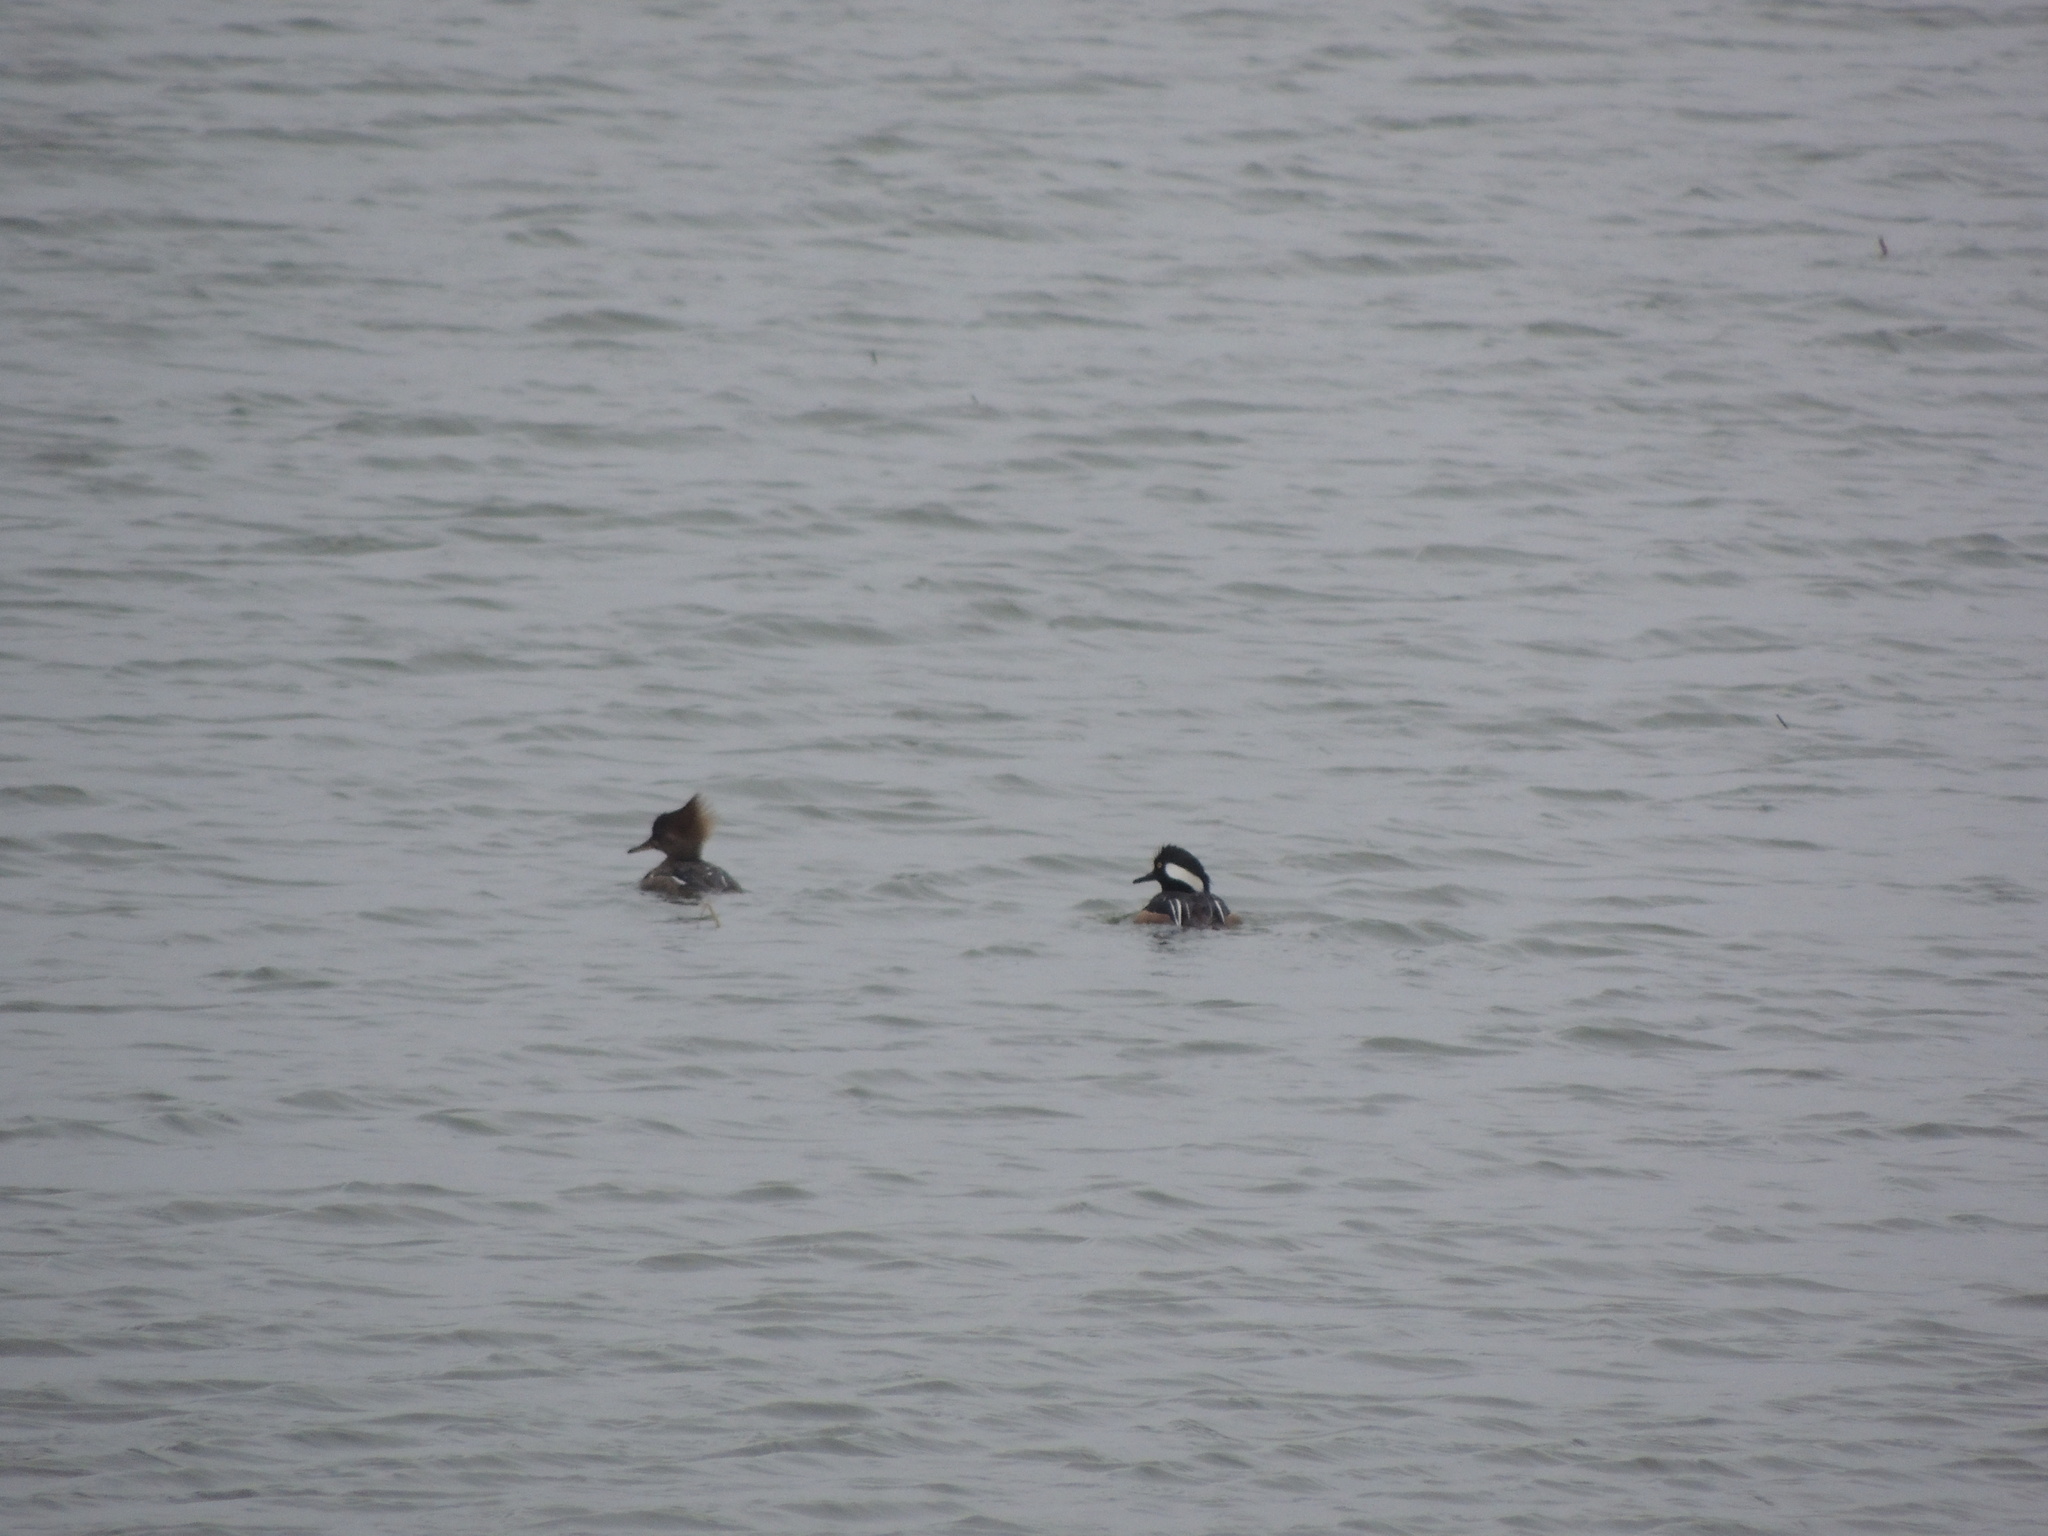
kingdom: Animalia
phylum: Chordata
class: Aves
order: Anseriformes
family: Anatidae
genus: Lophodytes
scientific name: Lophodytes cucullatus
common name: Hooded merganser
